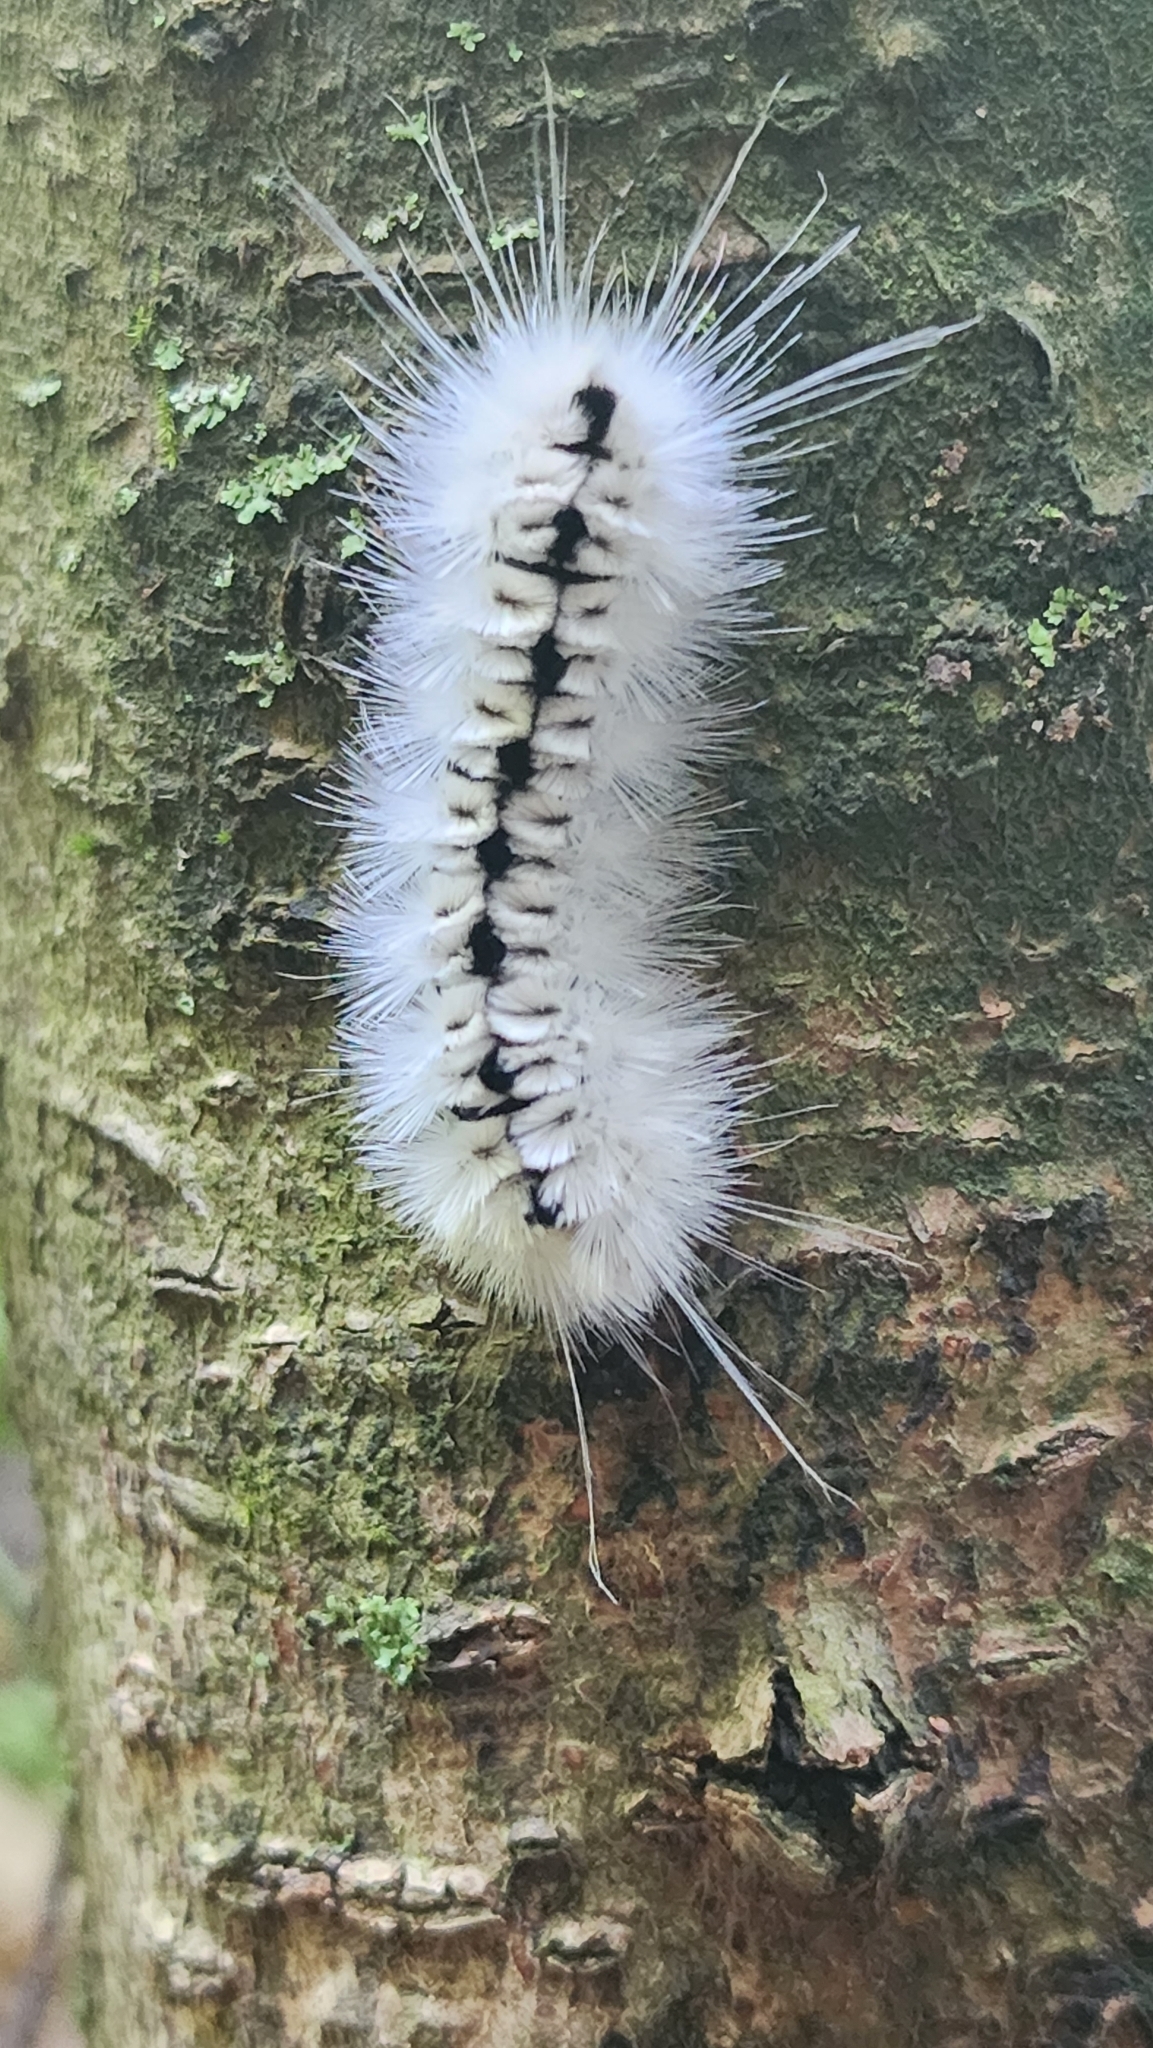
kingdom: Animalia
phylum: Arthropoda
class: Insecta
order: Lepidoptera
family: Erebidae
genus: Lophocampa
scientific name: Lophocampa caryae
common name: Hickory tussock moth
